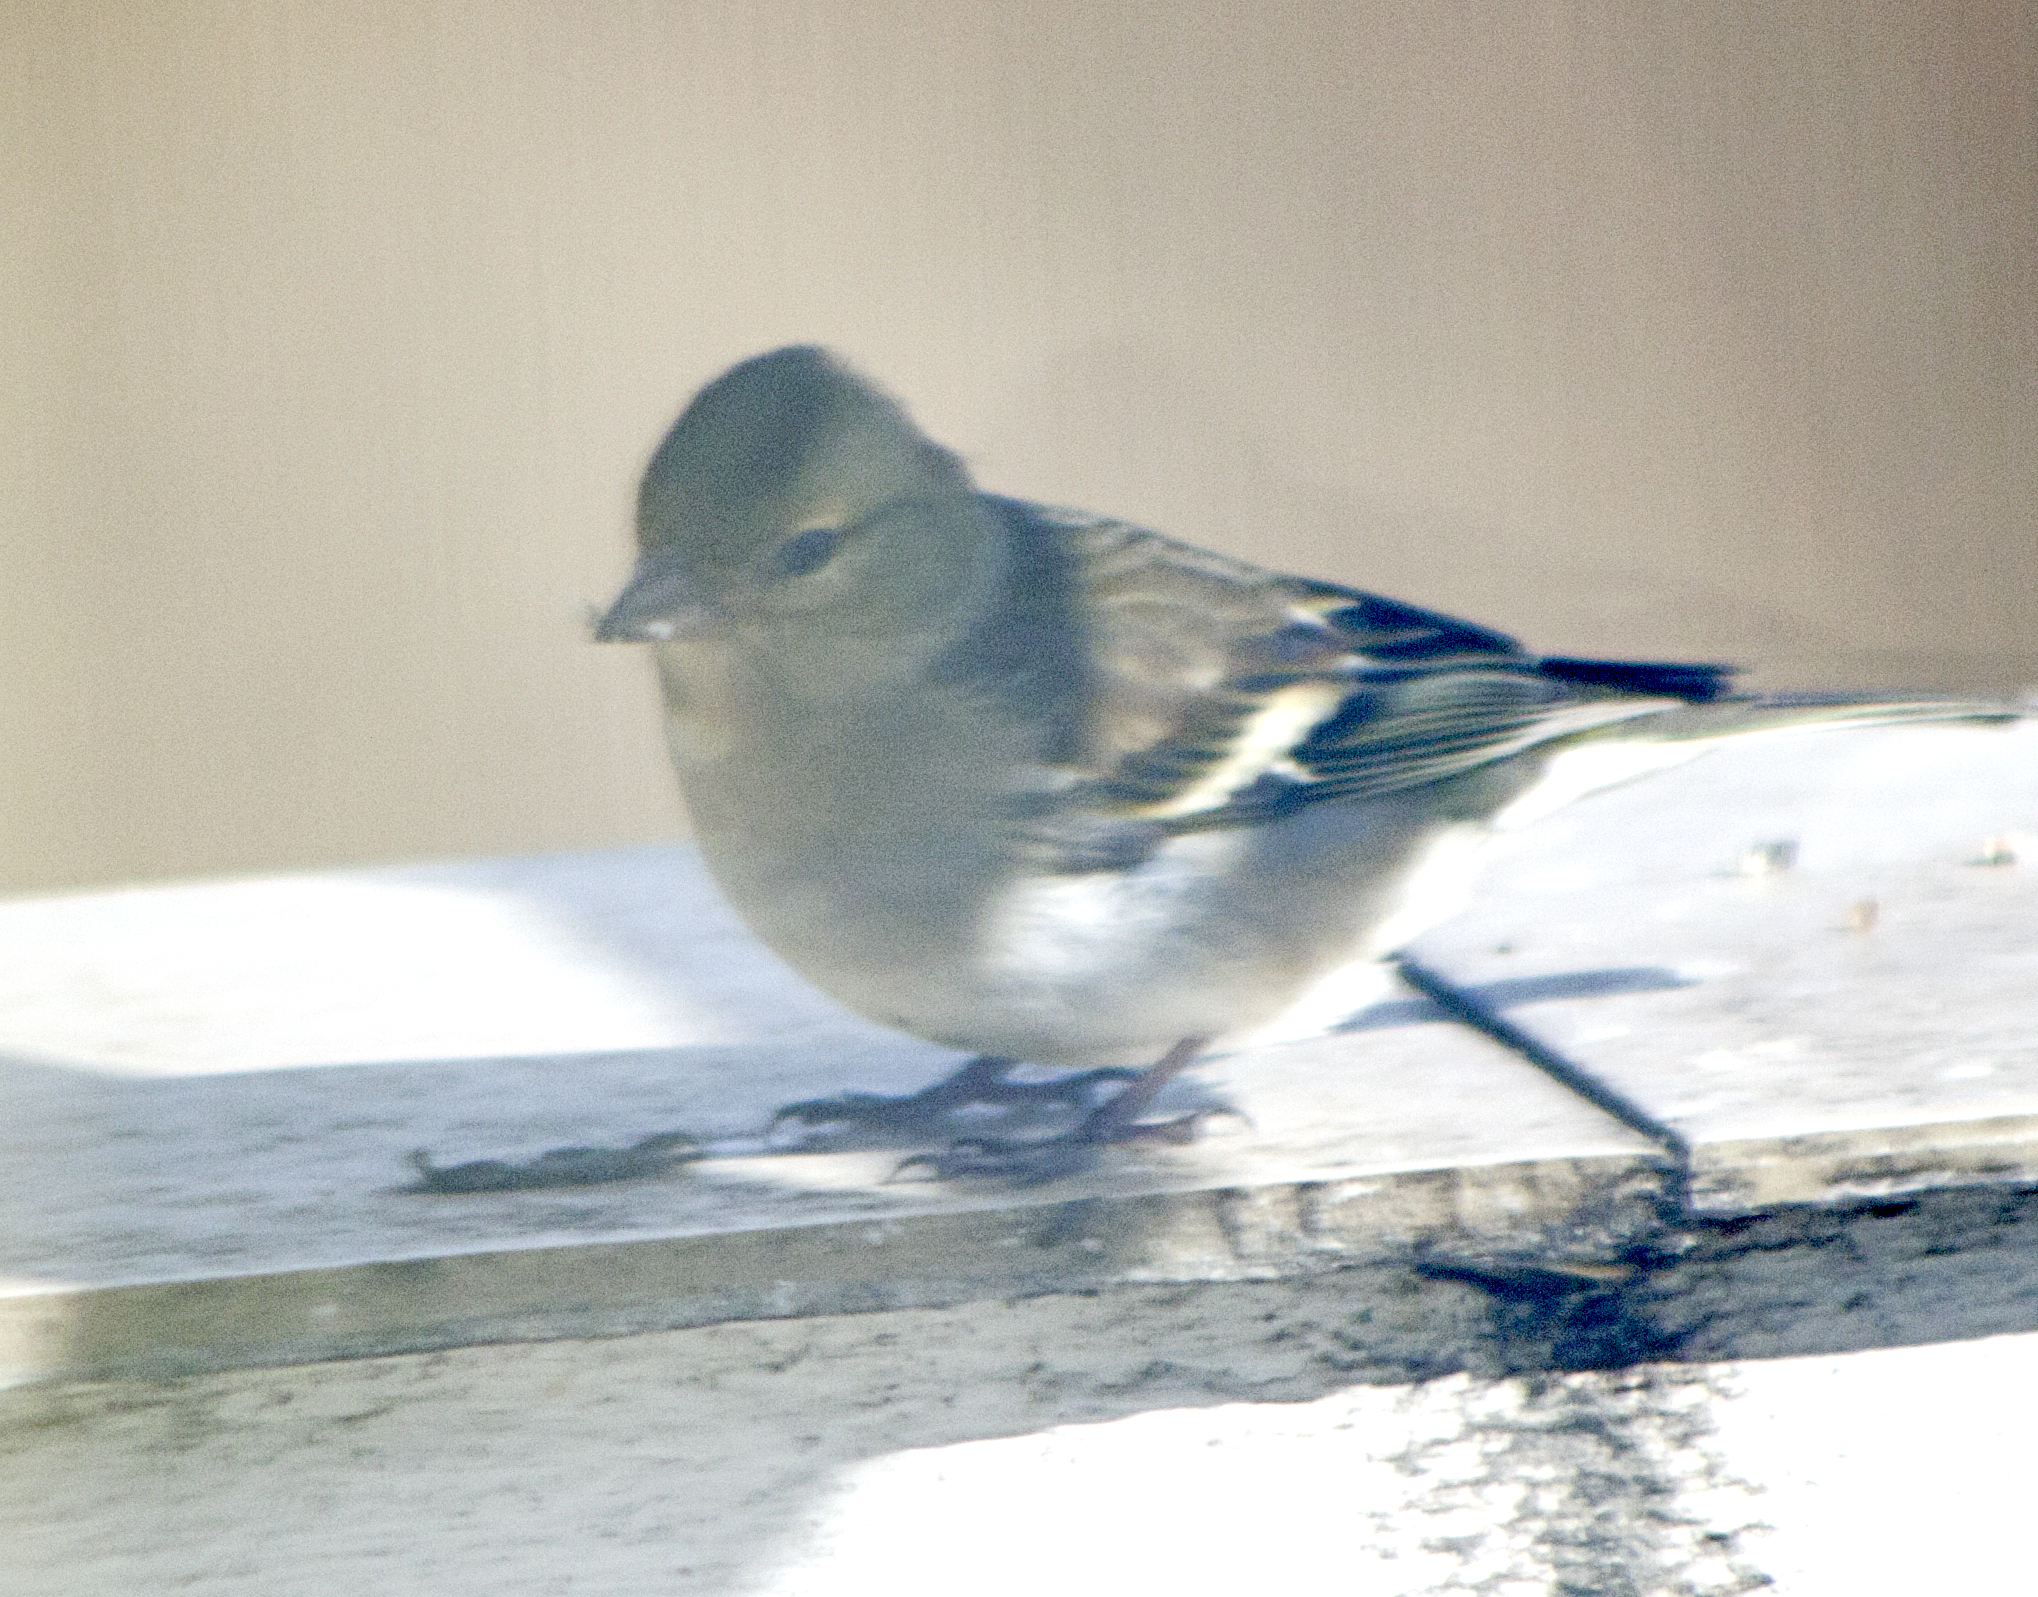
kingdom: Animalia
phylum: Chordata
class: Aves
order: Passeriformes
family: Fringillidae
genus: Fringilla
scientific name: Fringilla coelebs
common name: Common chaffinch
